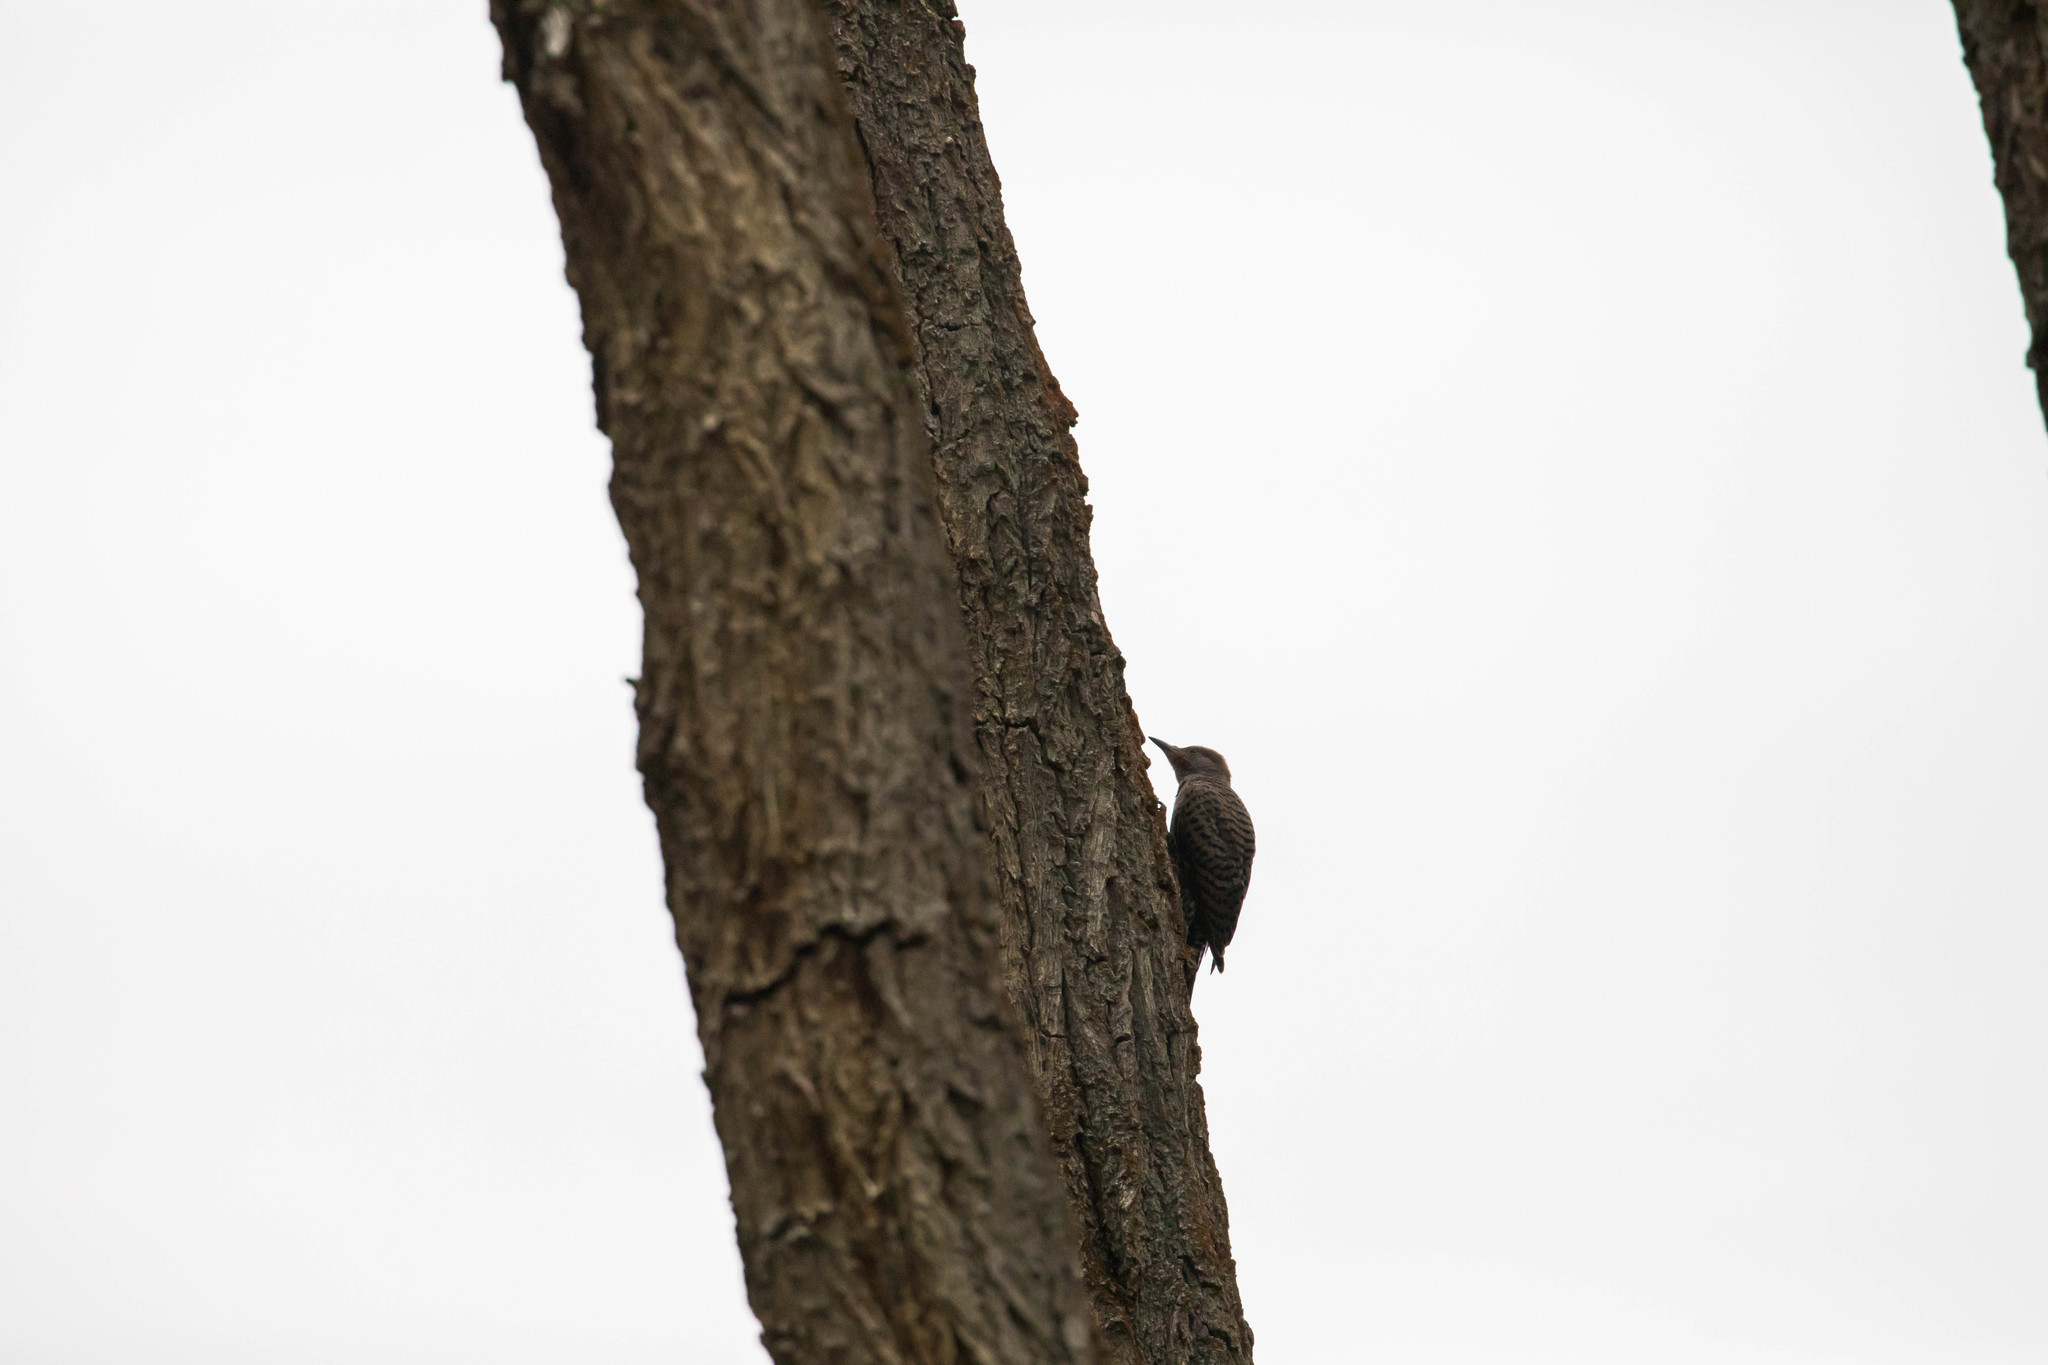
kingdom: Animalia
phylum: Chordata
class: Aves
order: Piciformes
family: Picidae
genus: Colaptes
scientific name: Colaptes auratus
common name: Northern flicker
